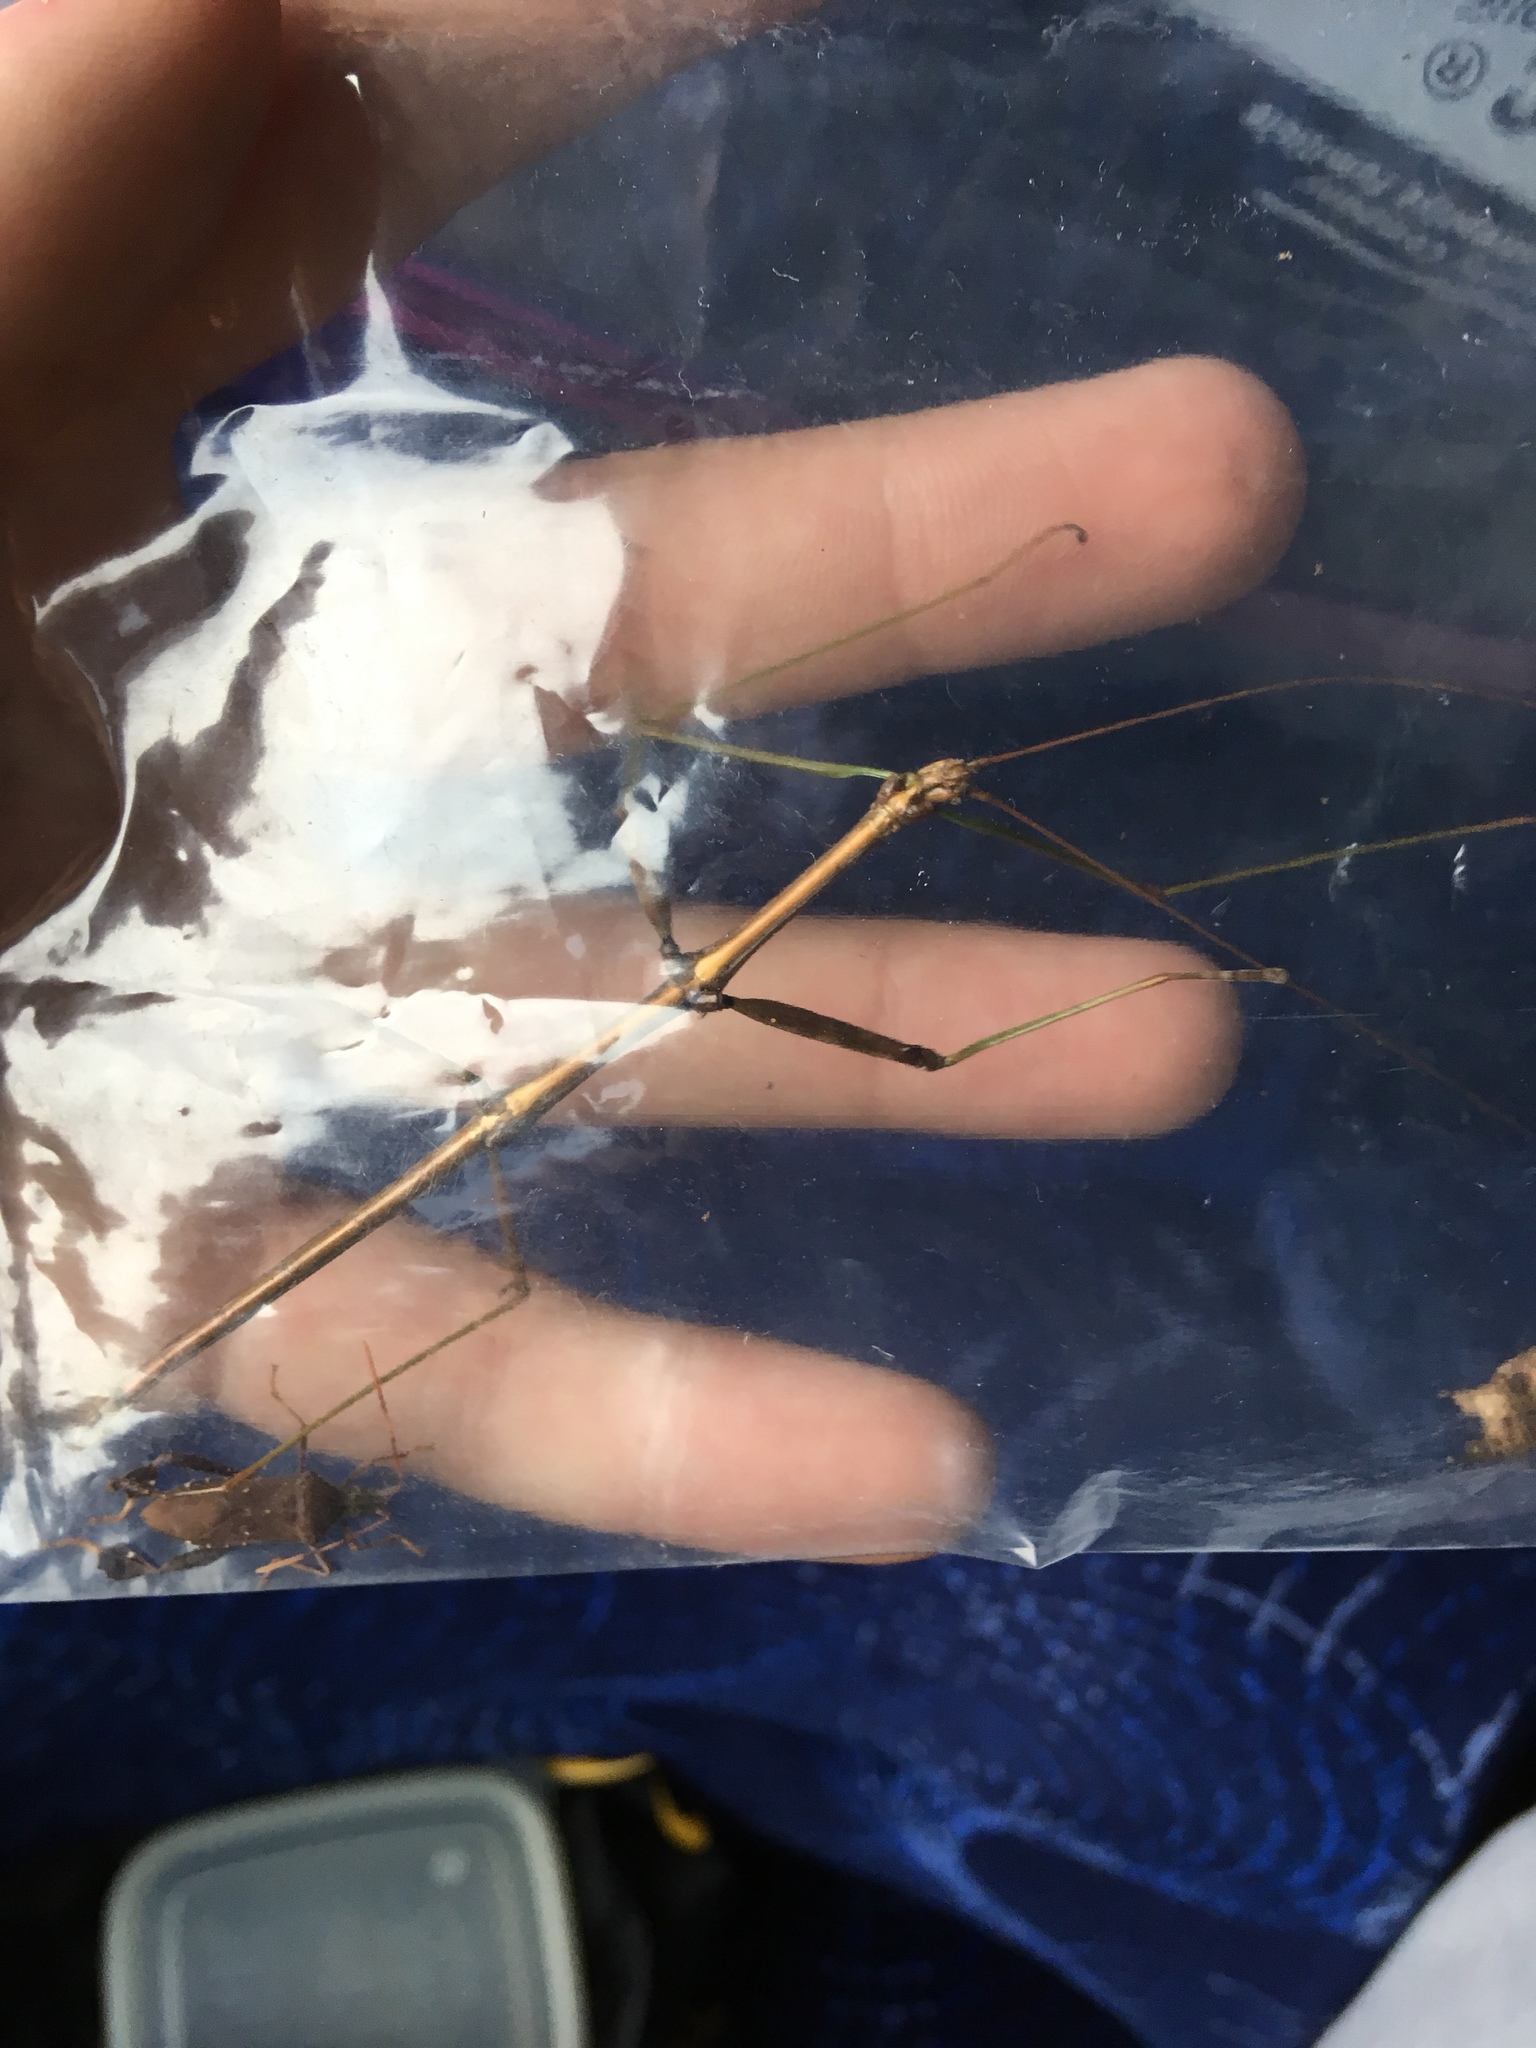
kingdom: Animalia
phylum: Arthropoda
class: Insecta
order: Phasmida
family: Diapheromeridae
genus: Diapheromera
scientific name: Diapheromera femorata
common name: Common american walkingstick
